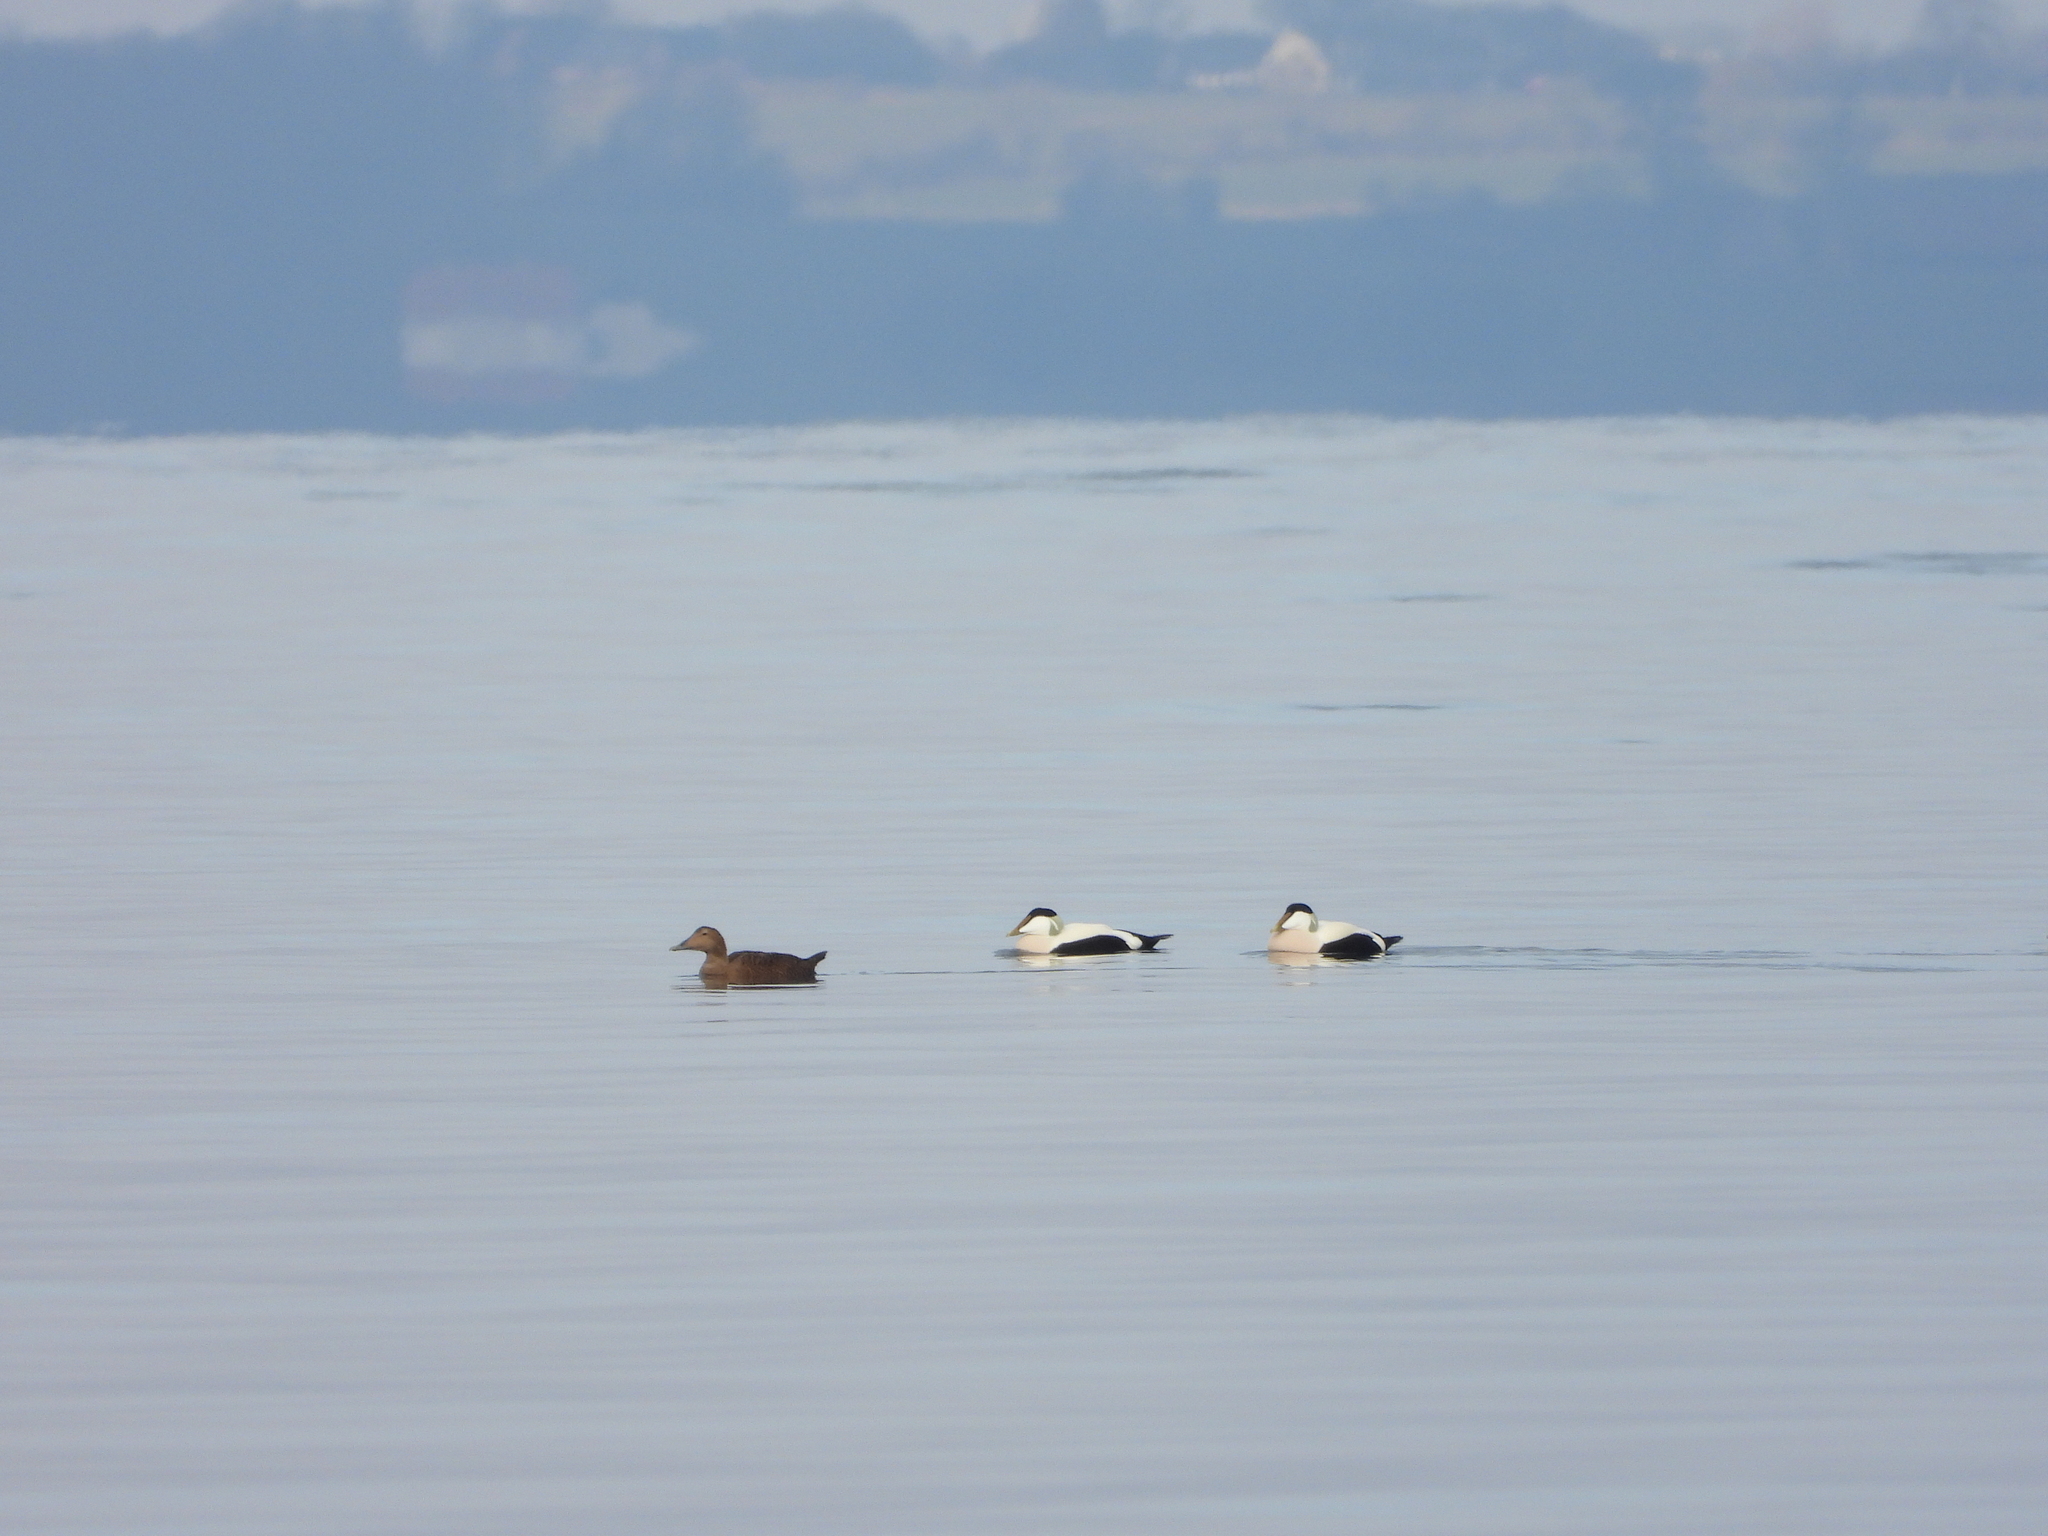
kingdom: Animalia
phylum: Chordata
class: Aves
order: Anseriformes
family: Anatidae
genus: Somateria
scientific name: Somateria mollissima
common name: Common eider
